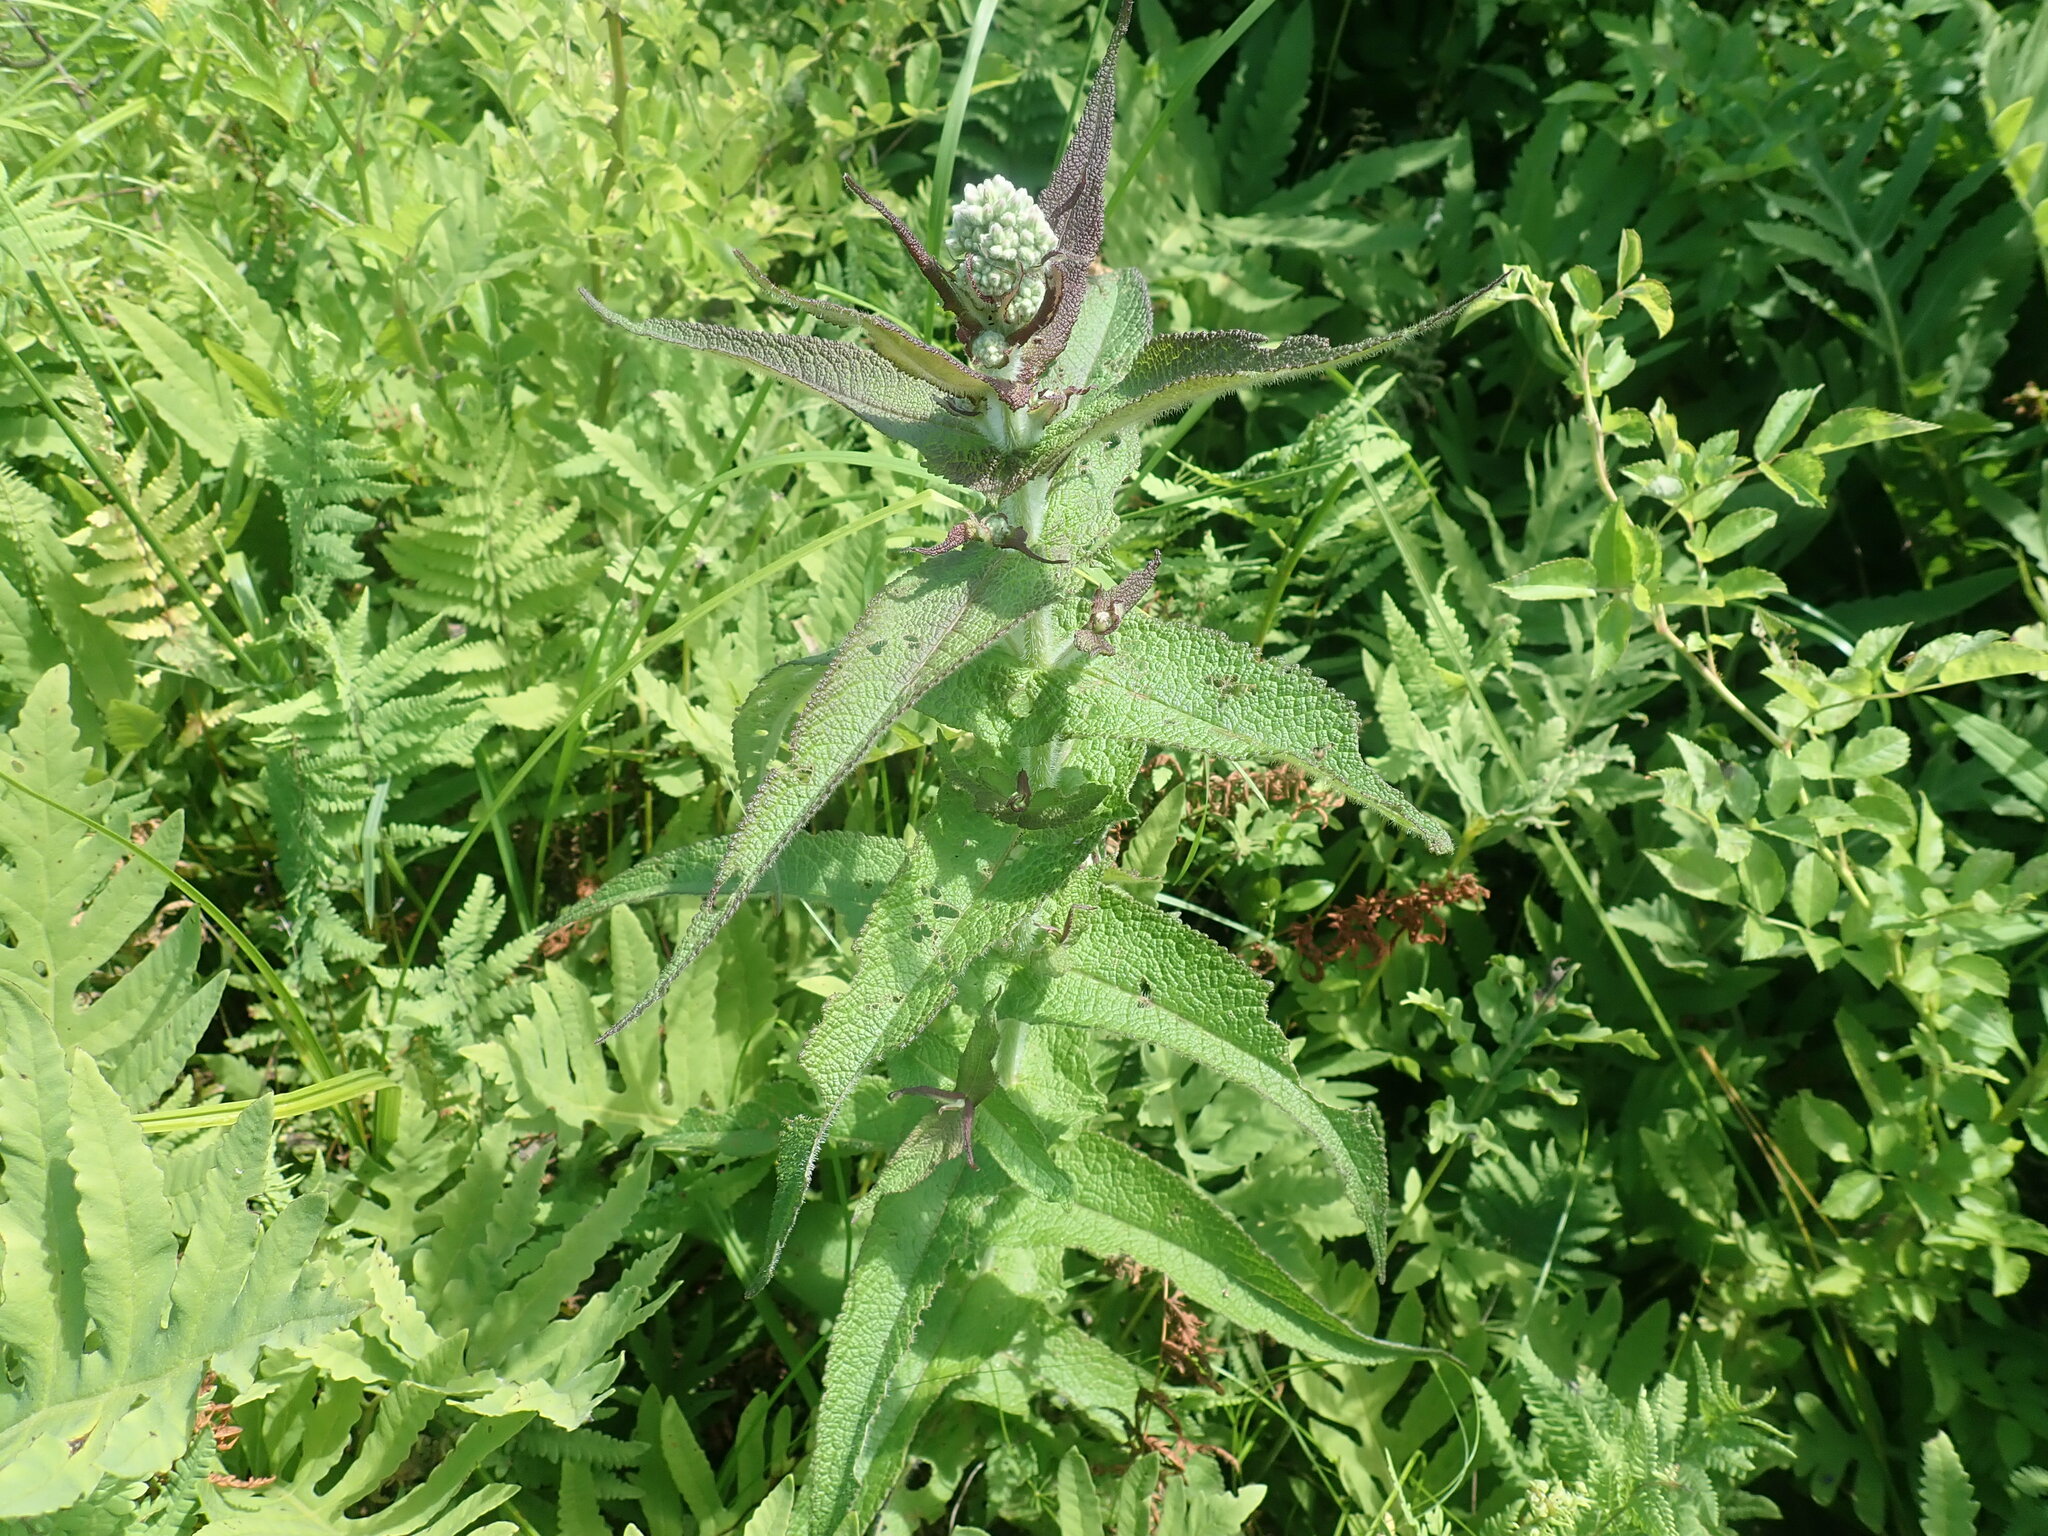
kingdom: Plantae
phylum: Tracheophyta
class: Magnoliopsida
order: Asterales
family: Asteraceae
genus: Eupatorium
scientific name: Eupatorium perfoliatum
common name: Boneset
